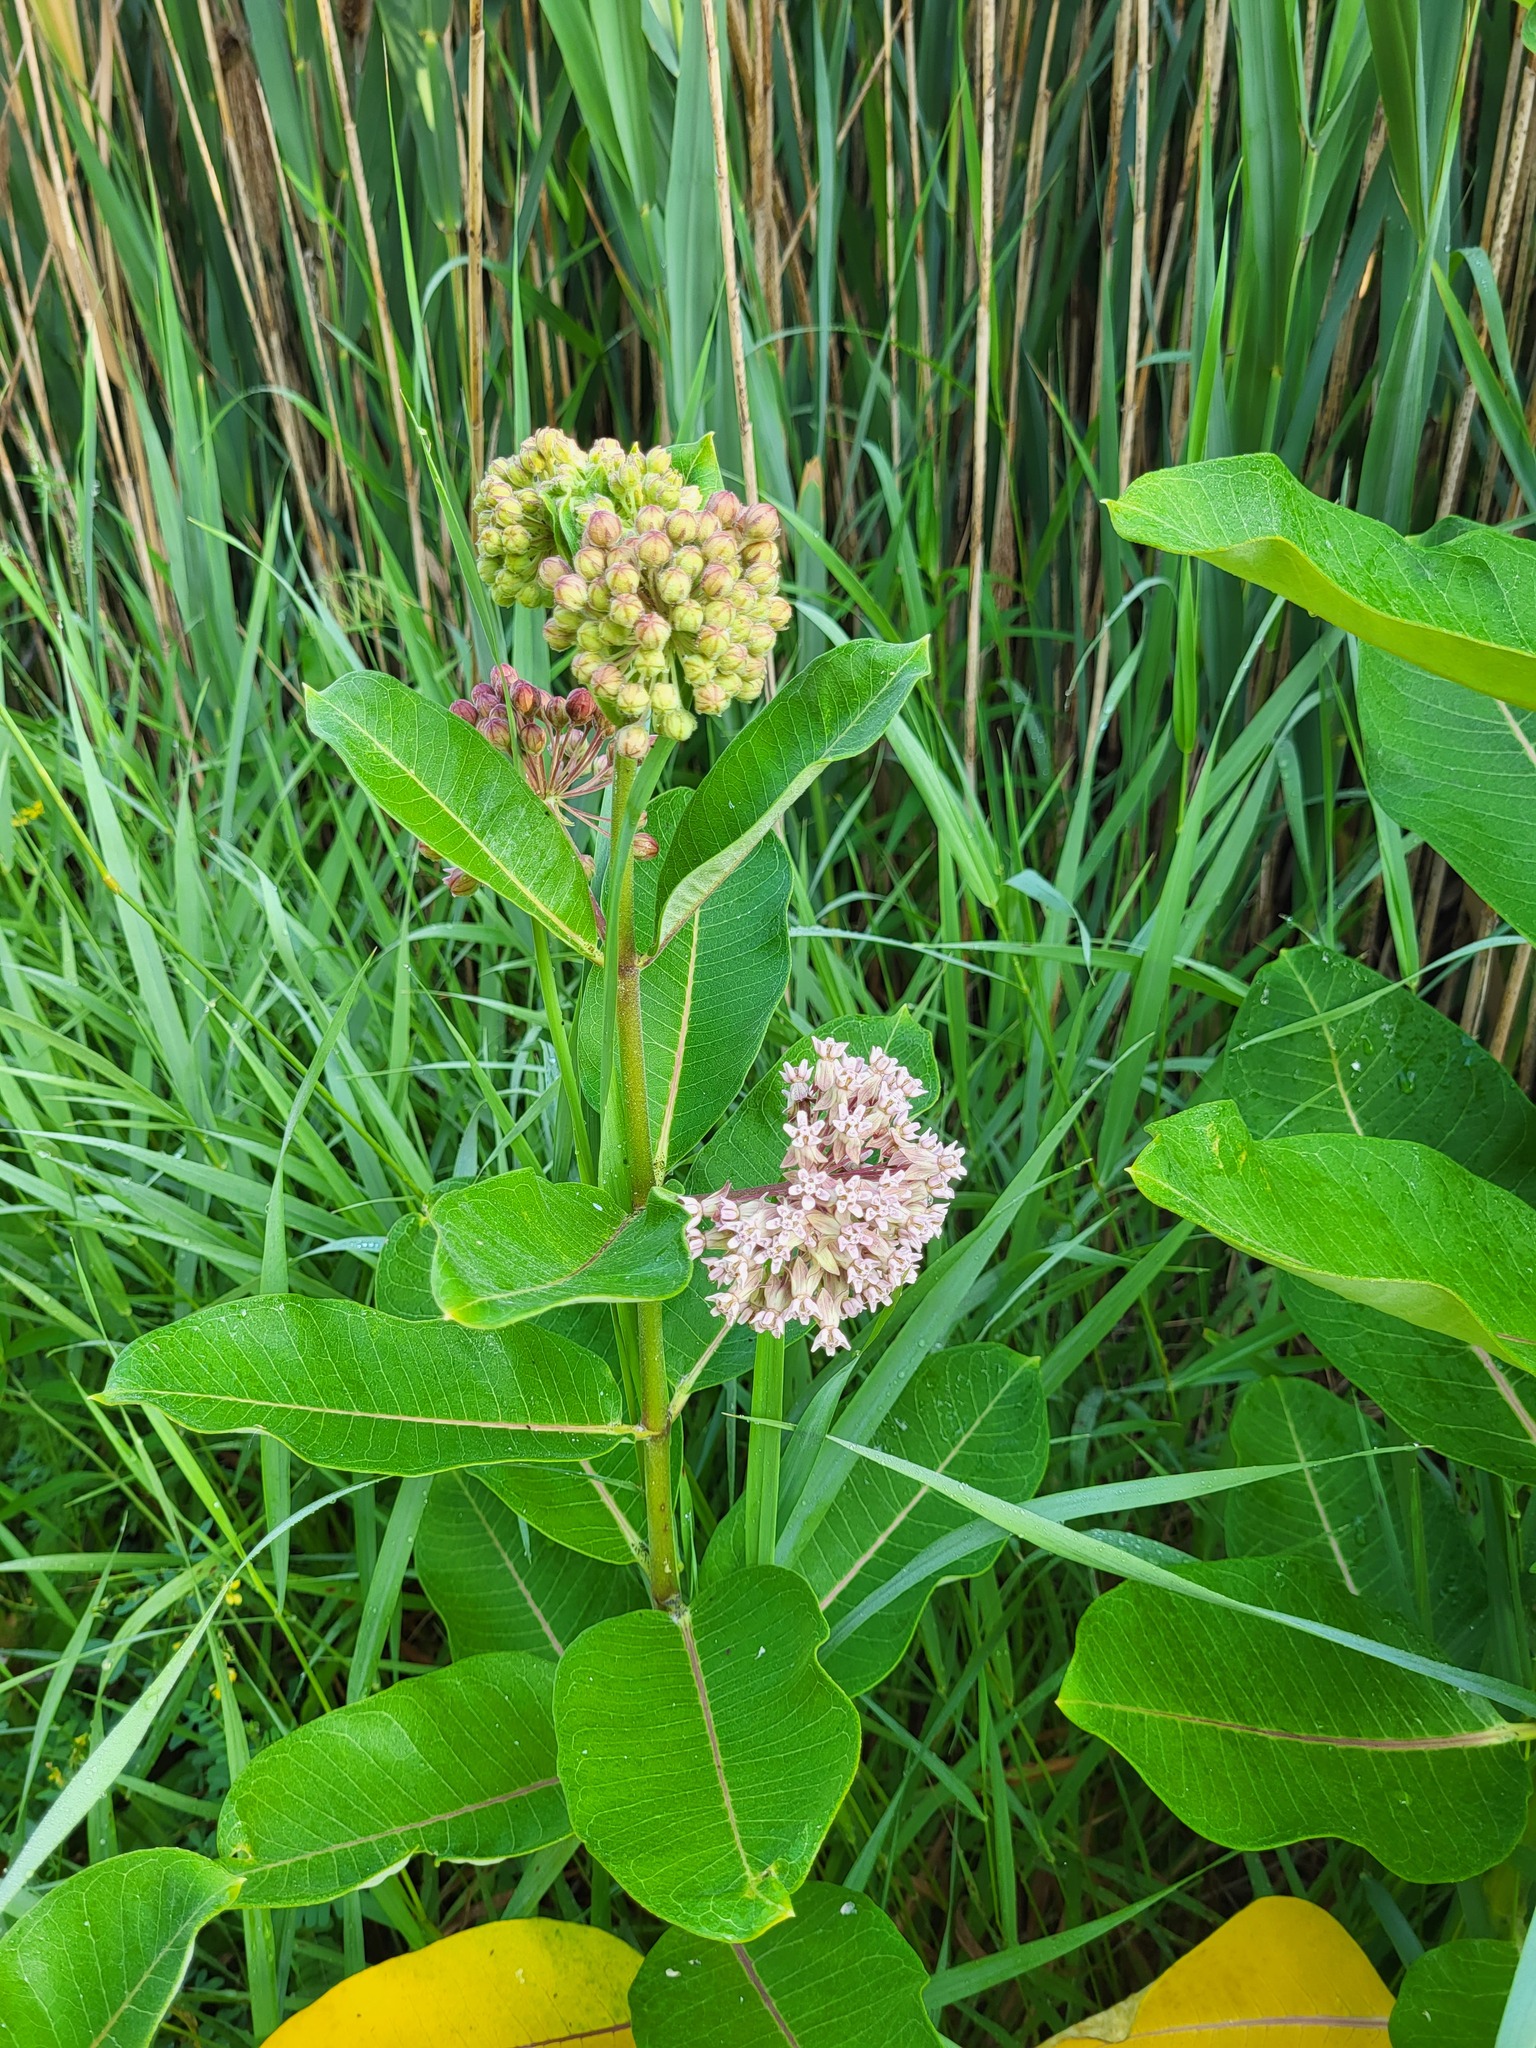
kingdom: Plantae
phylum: Tracheophyta
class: Magnoliopsida
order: Gentianales
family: Apocynaceae
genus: Asclepias
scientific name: Asclepias syriaca
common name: Common milkweed
